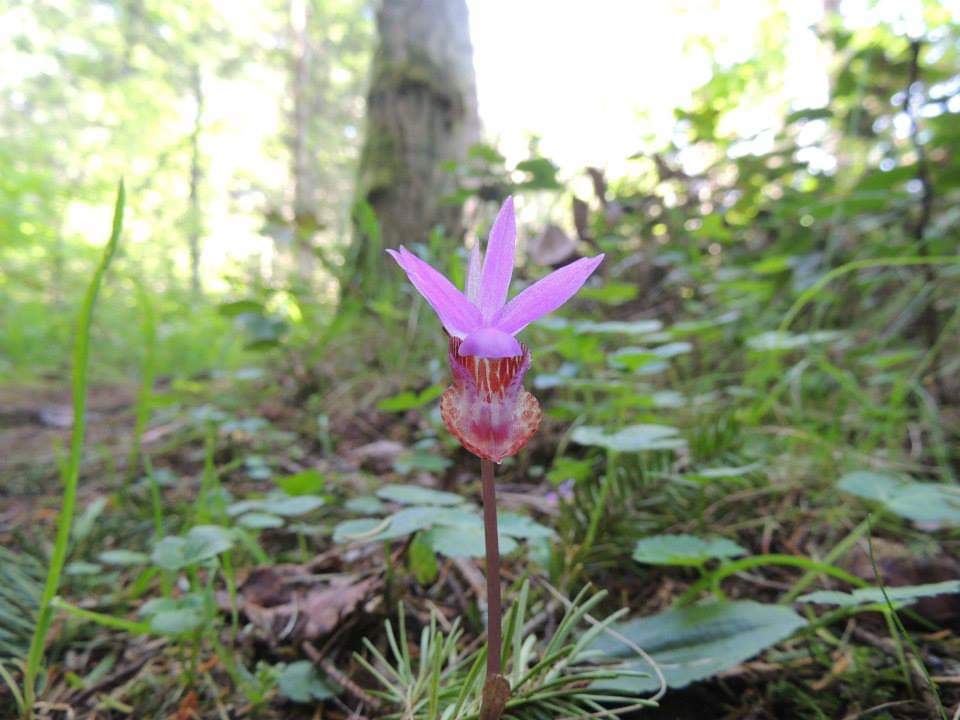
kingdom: Plantae
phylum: Tracheophyta
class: Liliopsida
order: Asparagales
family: Orchidaceae
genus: Calypso
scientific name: Calypso bulbosa
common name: Calypso
